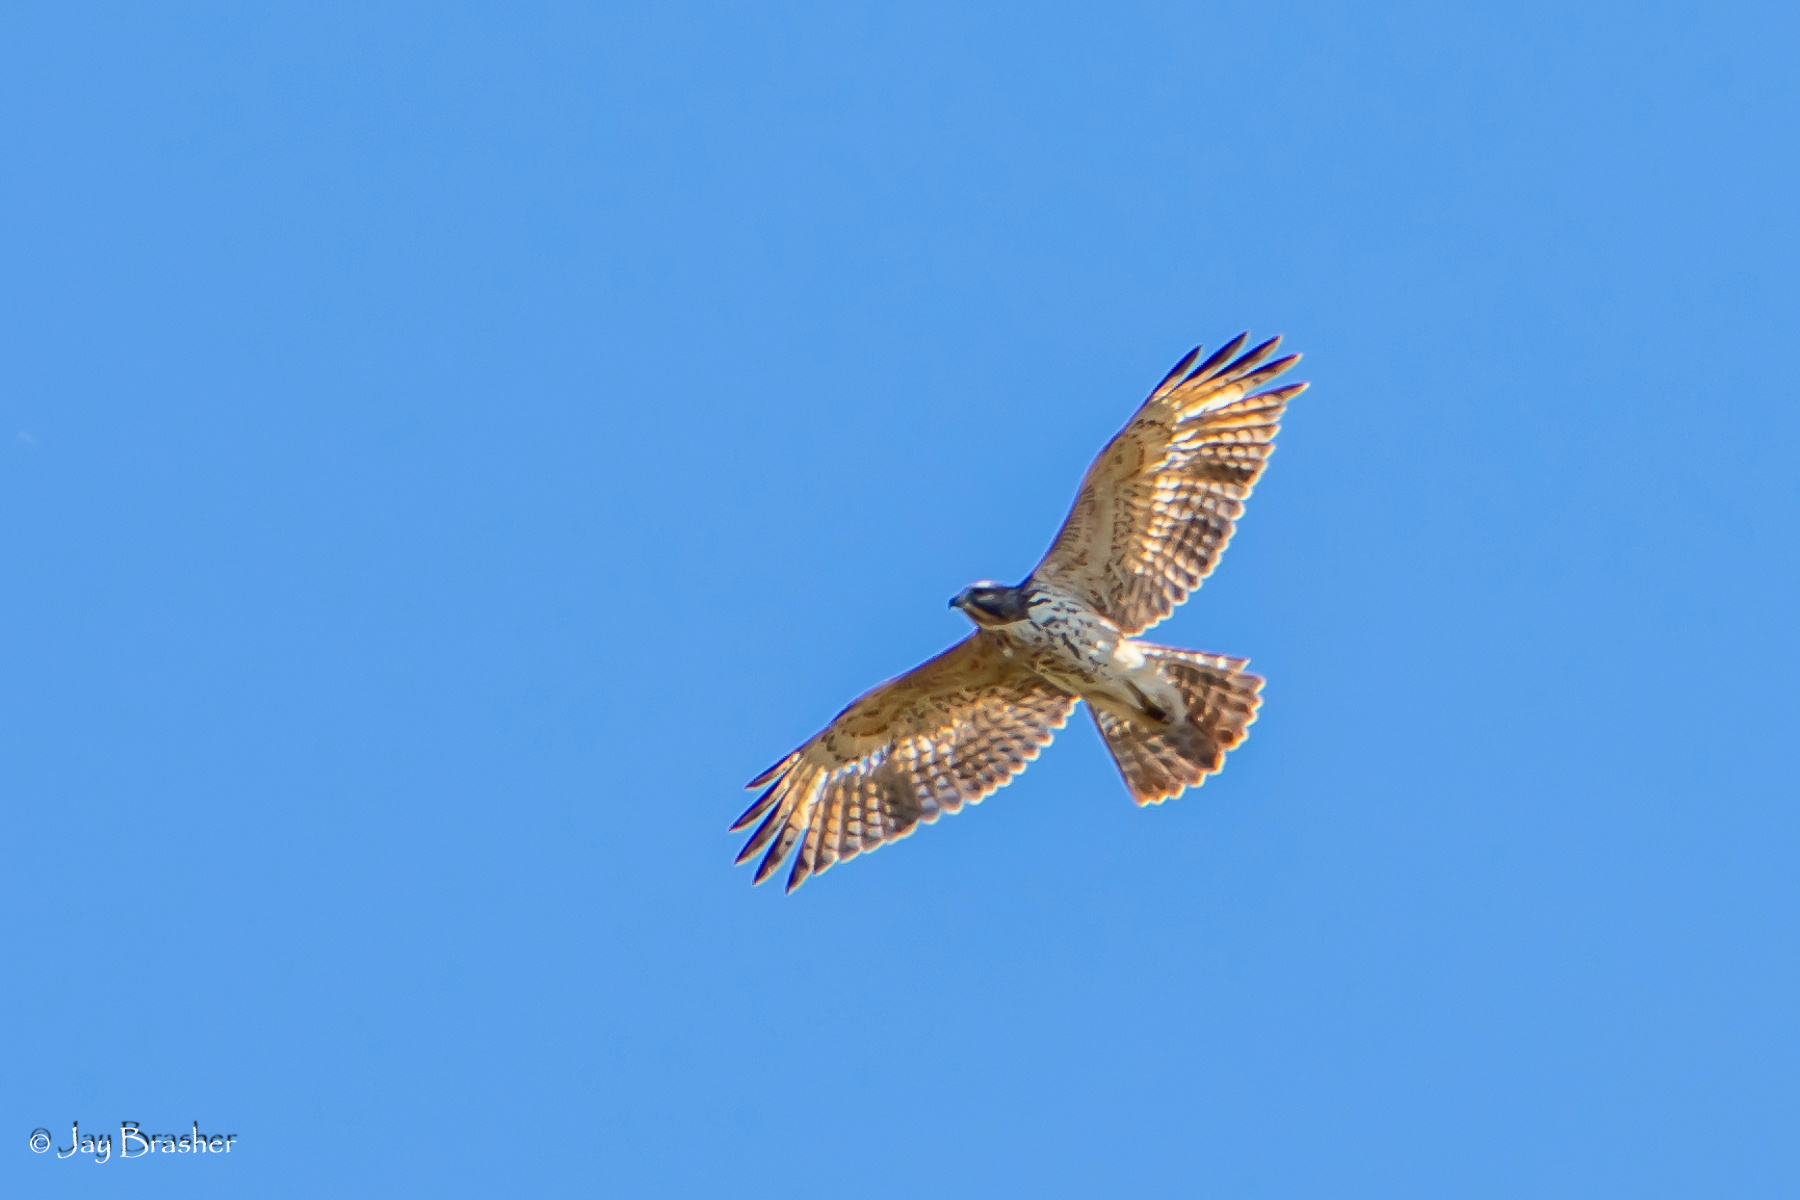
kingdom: Animalia
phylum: Chordata
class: Aves
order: Accipitriformes
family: Accipitridae
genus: Buteo
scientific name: Buteo lineatus
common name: Red-shouldered hawk
